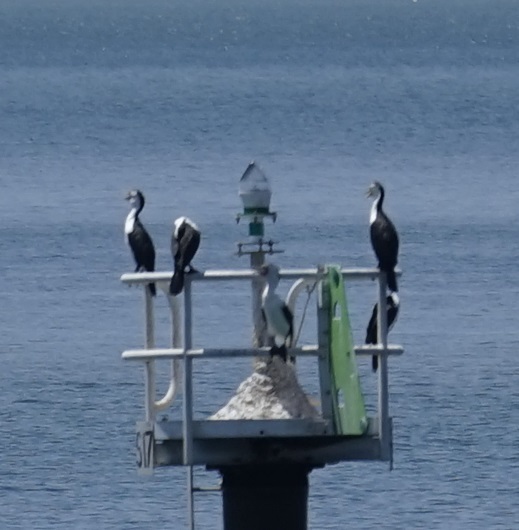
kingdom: Animalia
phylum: Chordata
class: Aves
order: Suliformes
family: Phalacrocoracidae
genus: Phalacrocorax
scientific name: Phalacrocorax varius
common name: Pied cormorant
